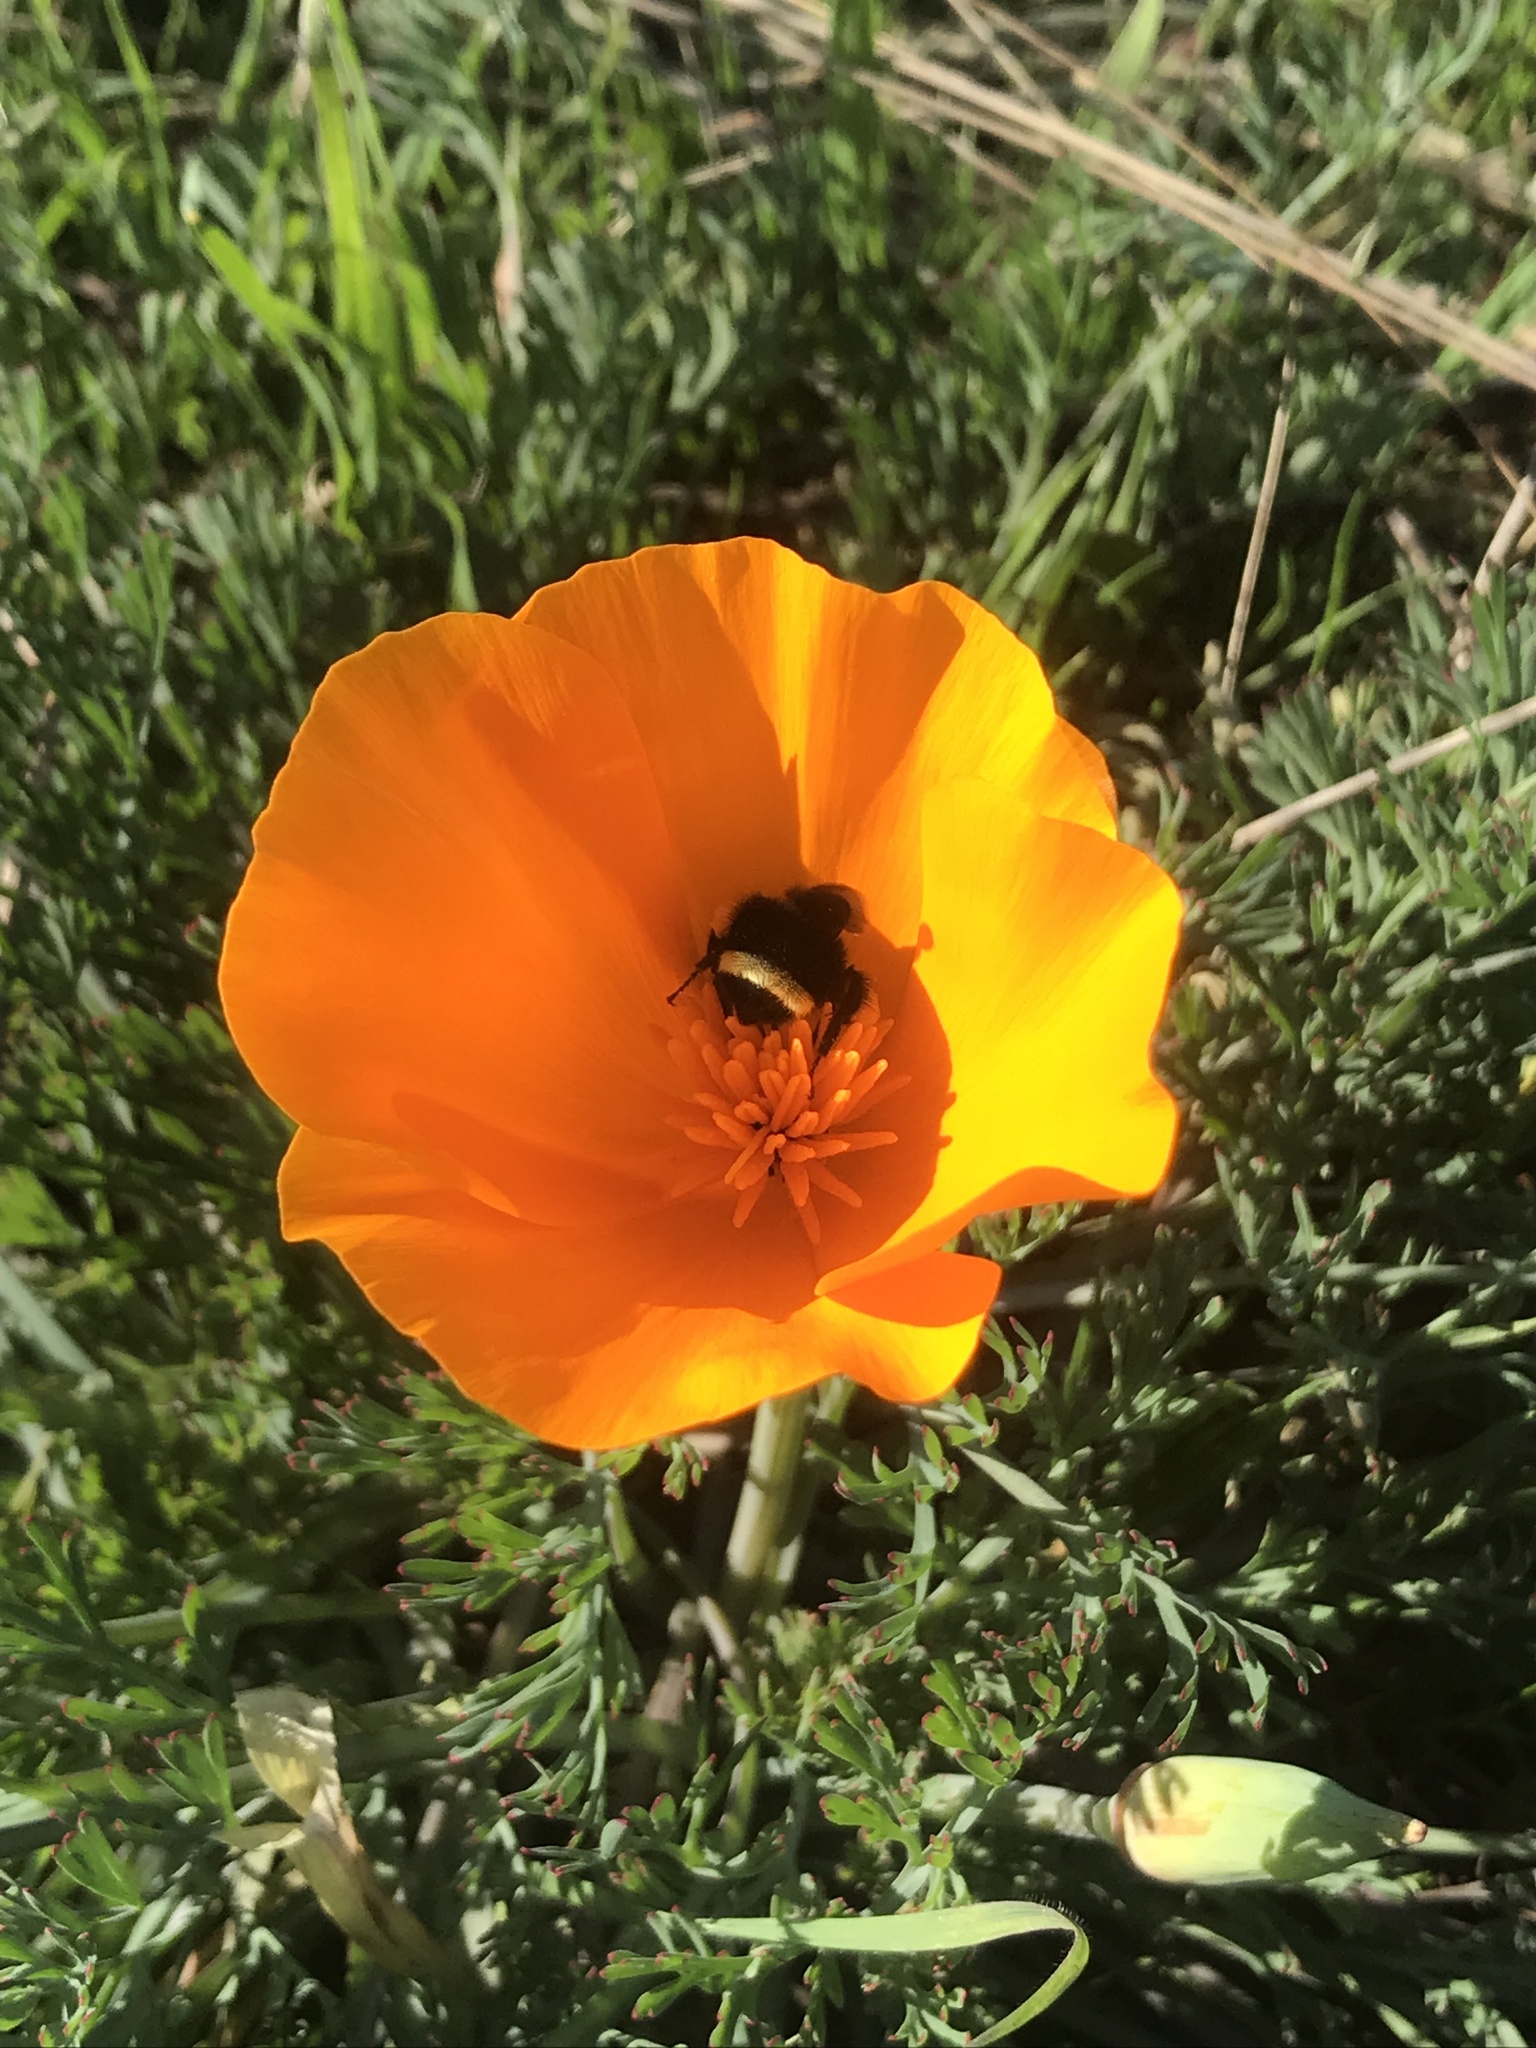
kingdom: Animalia
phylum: Arthropoda
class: Insecta
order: Hymenoptera
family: Apidae
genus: Pyrobombus
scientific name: Pyrobombus
